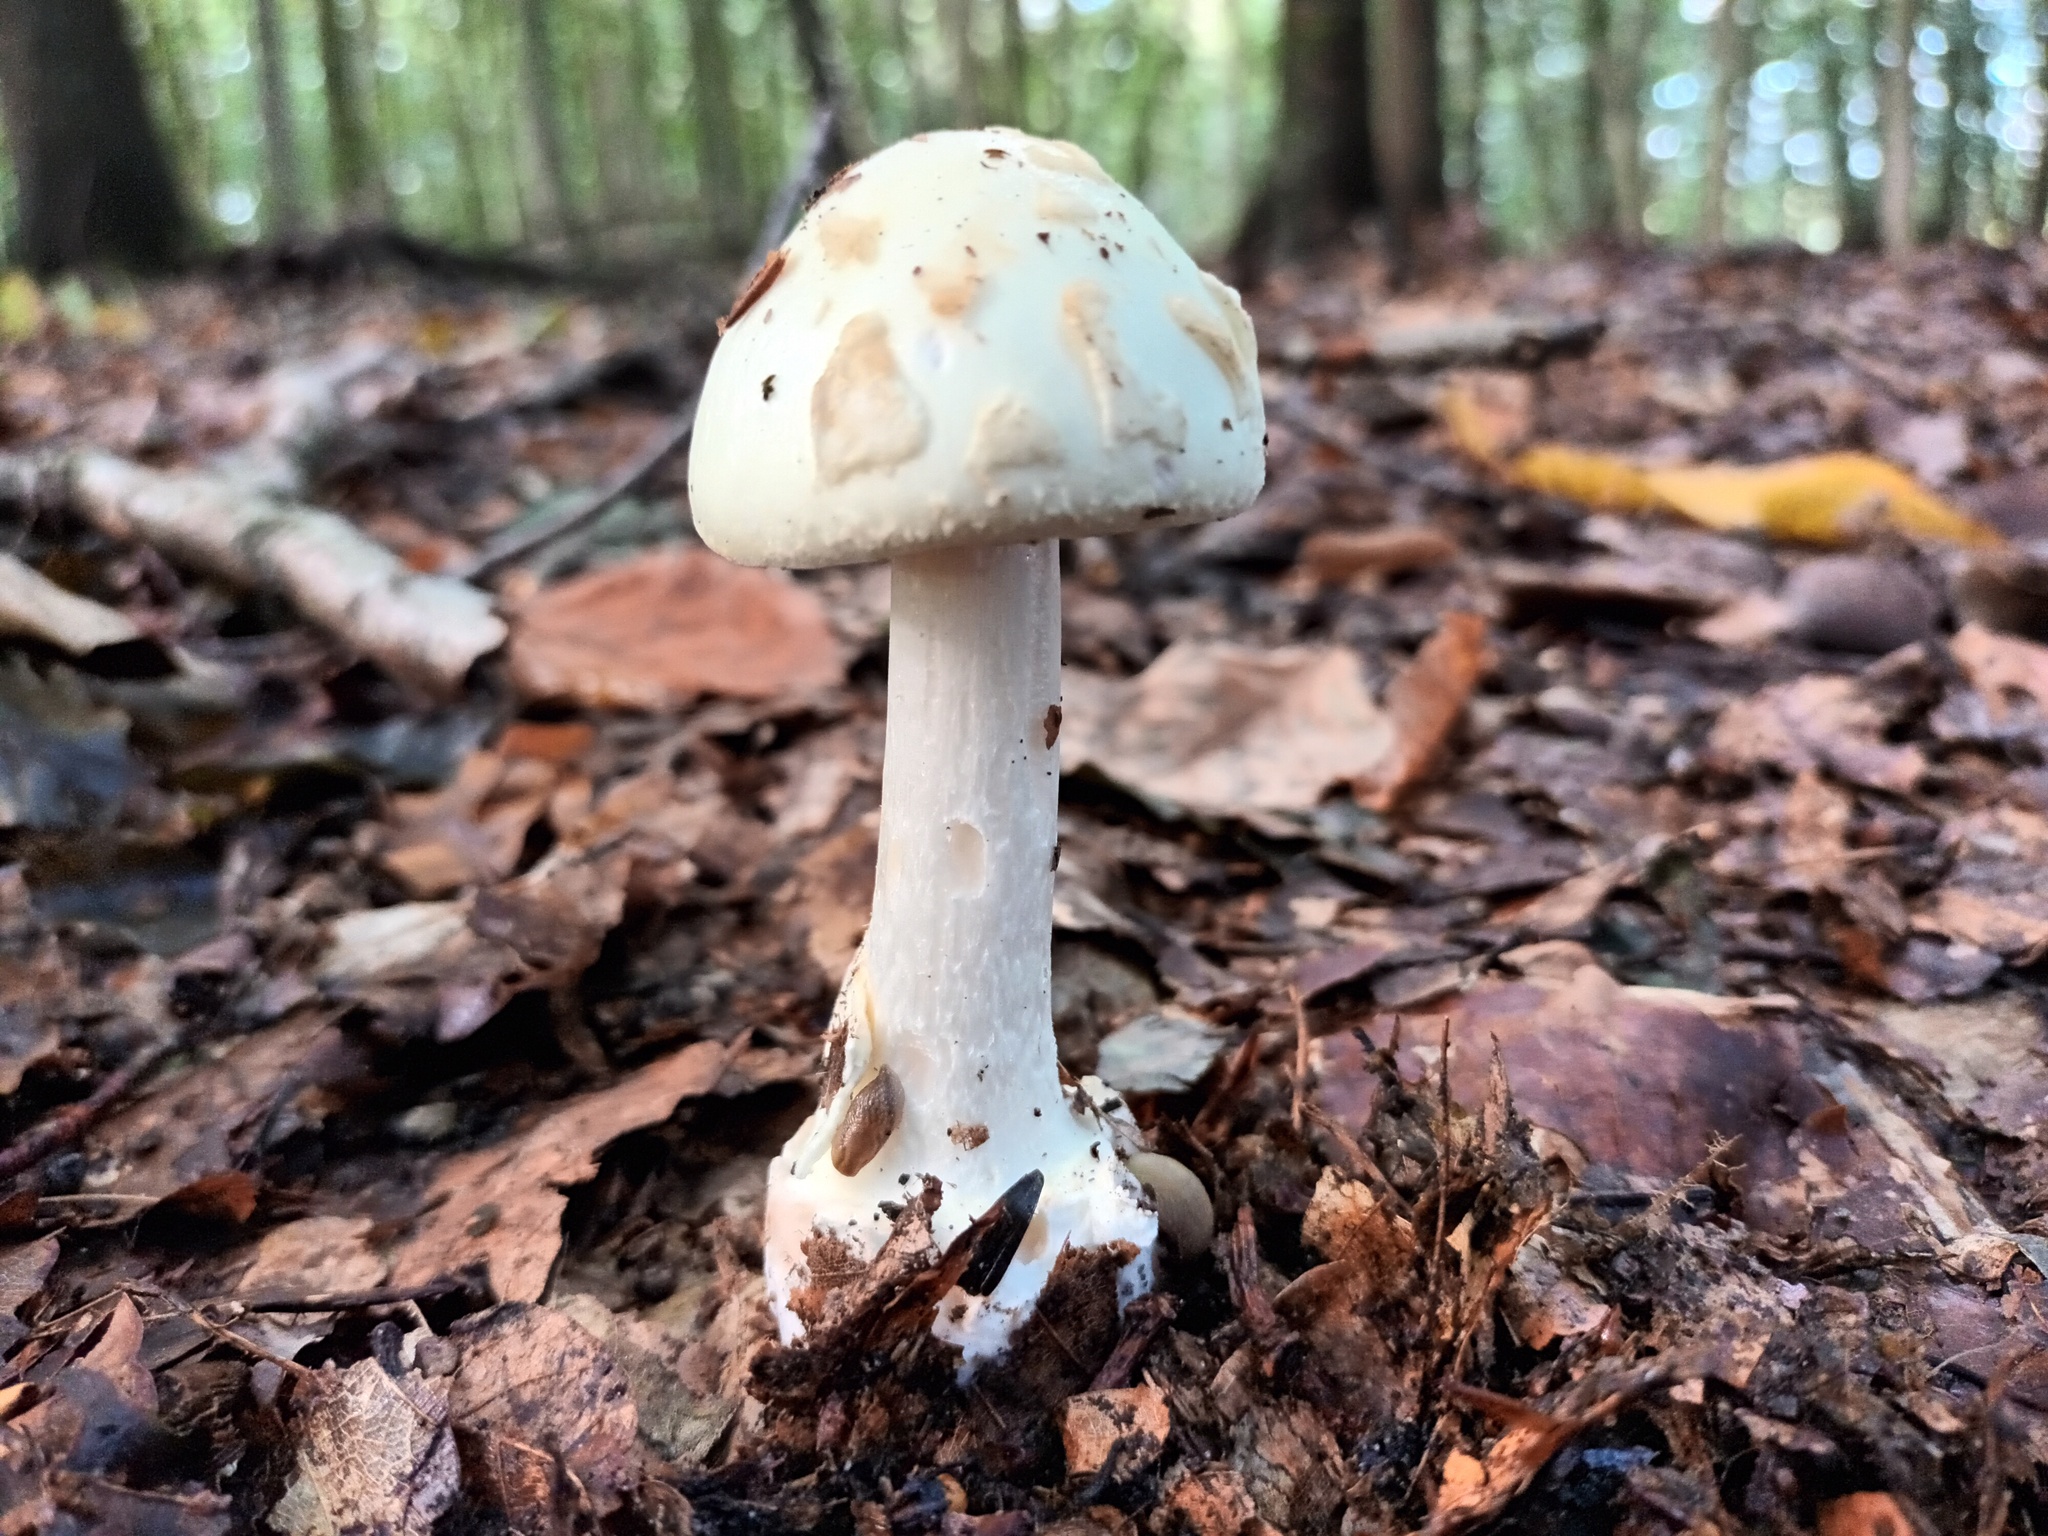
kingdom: Fungi
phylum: Basidiomycota
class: Agaricomycetes
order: Agaricales
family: Amanitaceae
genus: Amanita
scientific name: Amanita citrina
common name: False death-cap
